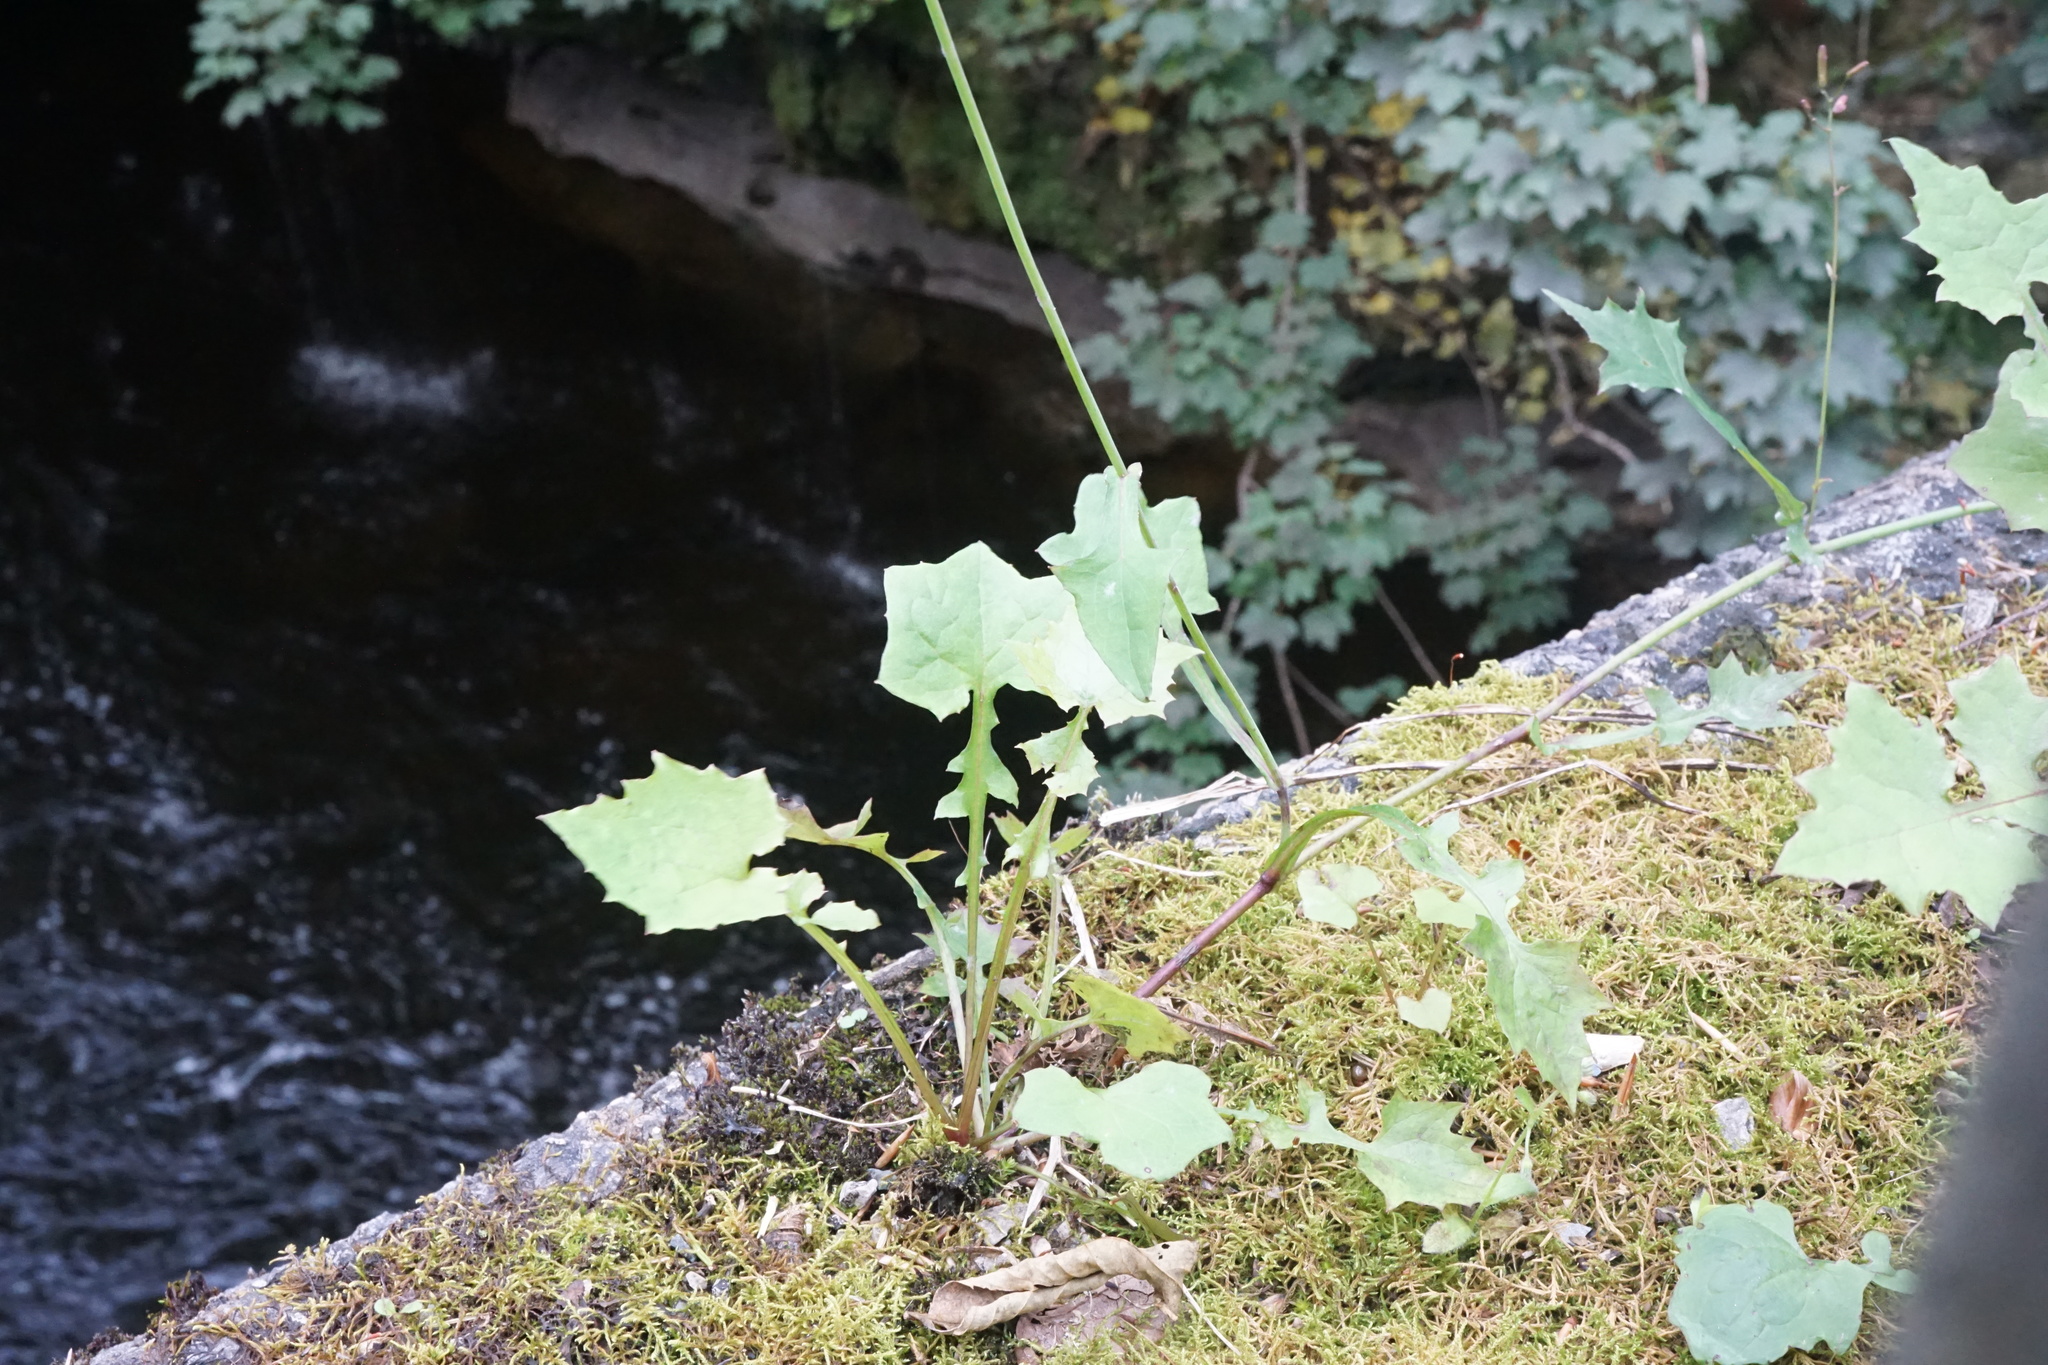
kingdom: Plantae
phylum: Tracheophyta
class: Magnoliopsida
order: Asterales
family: Asteraceae
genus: Mycelis
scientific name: Mycelis muralis
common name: Wall lettuce
